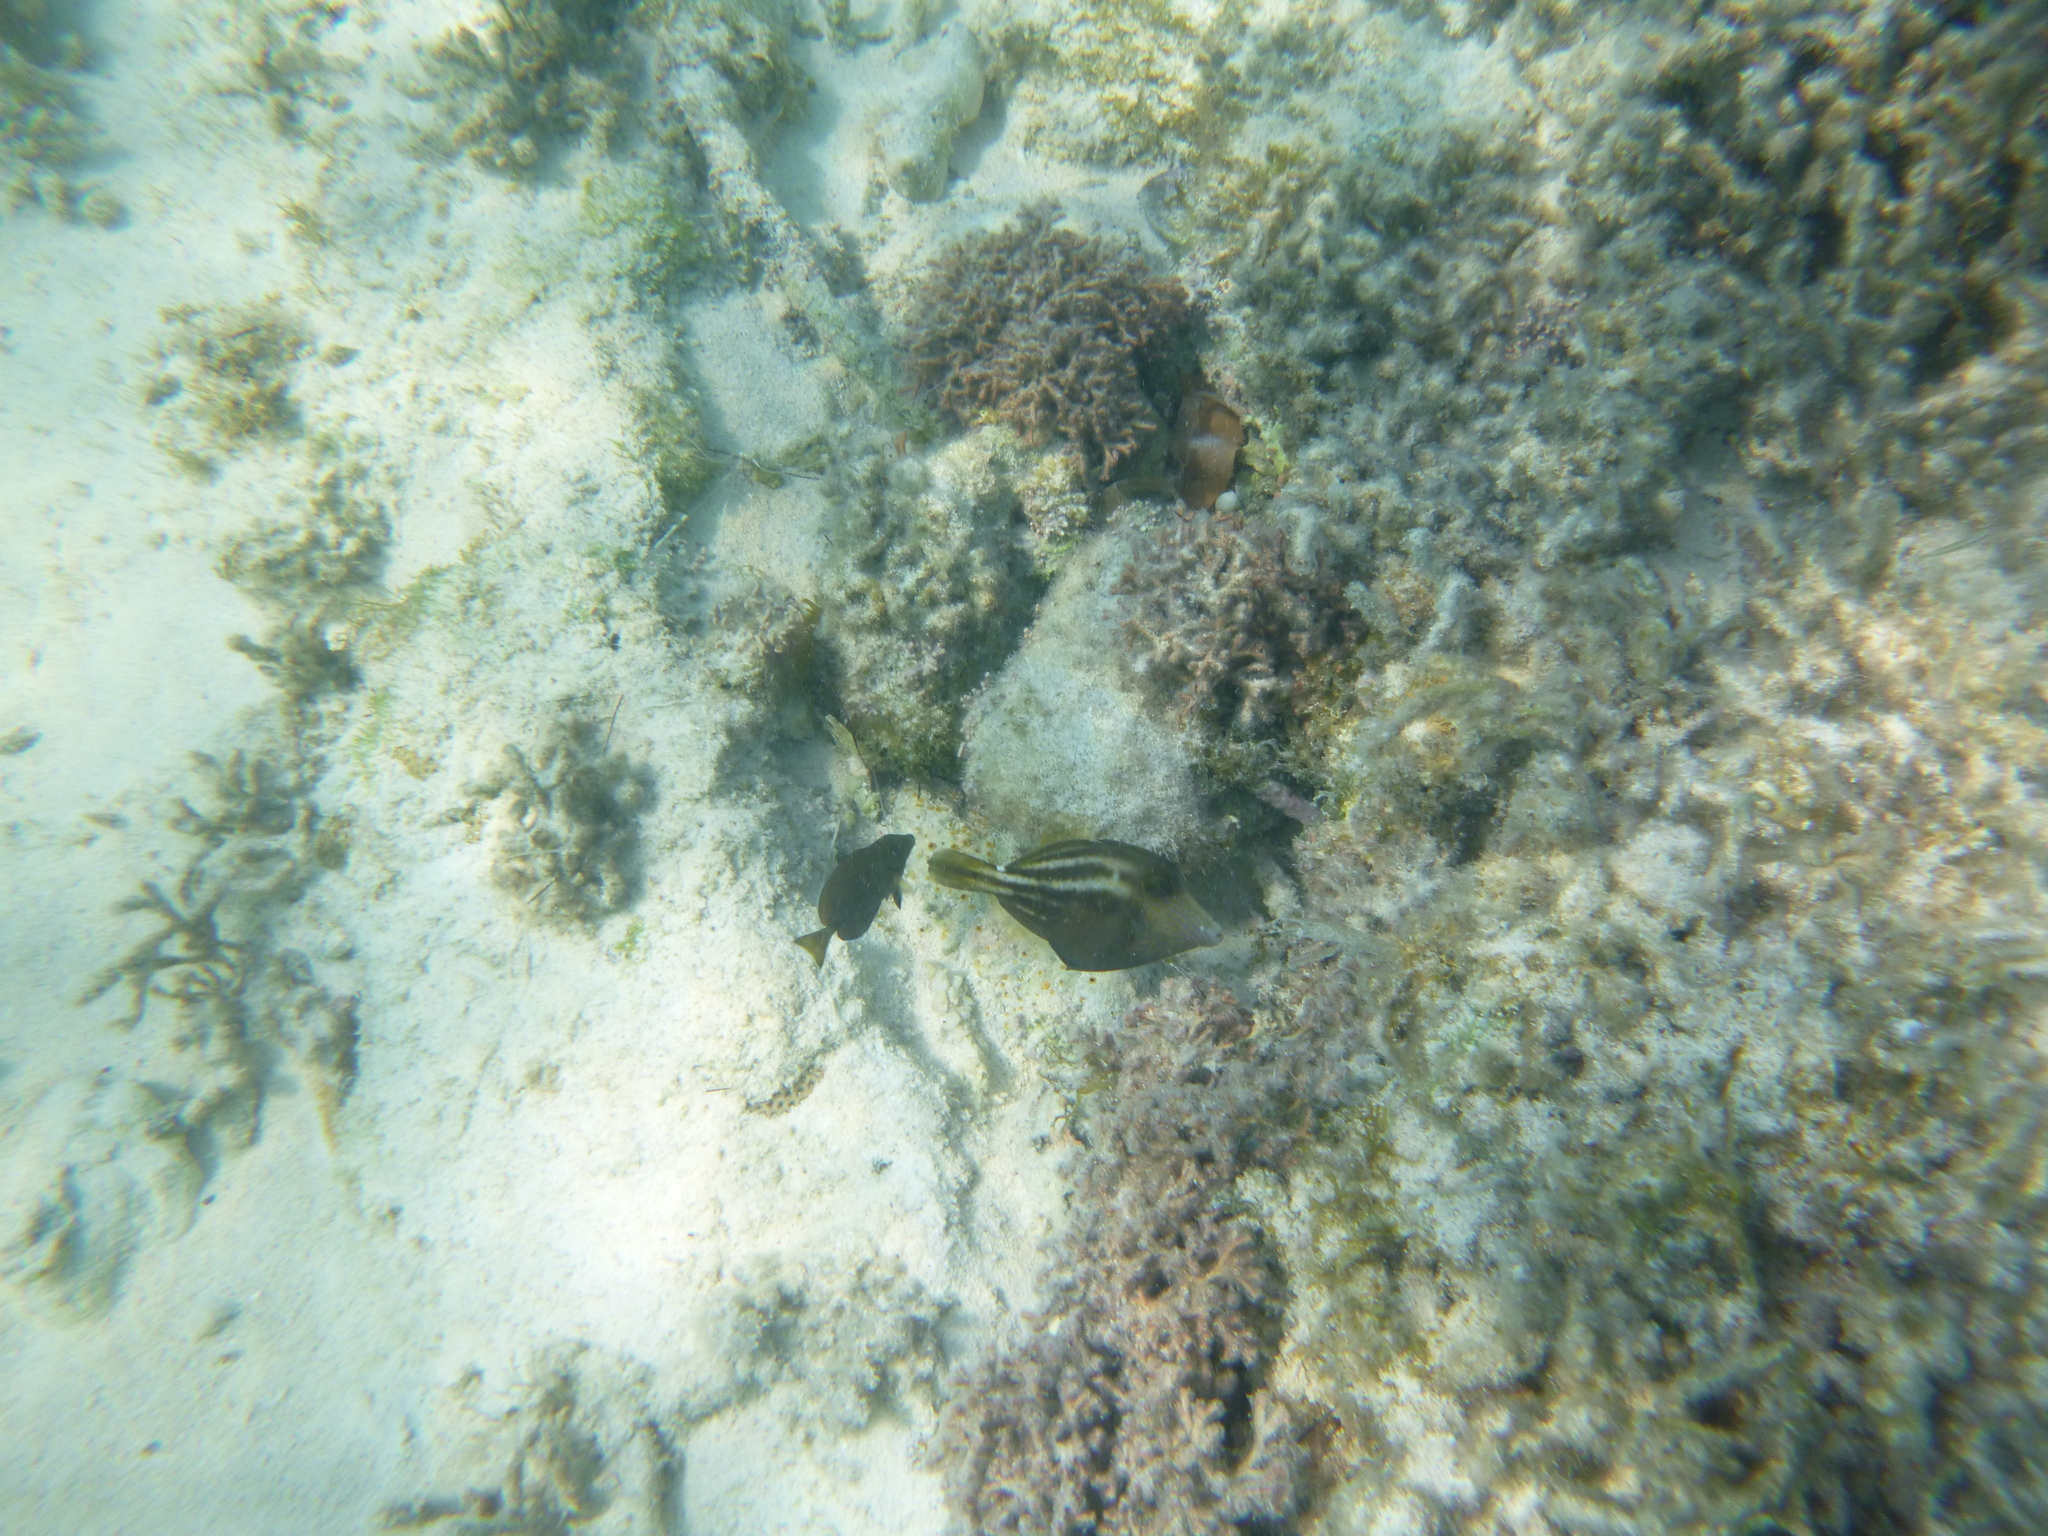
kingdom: Animalia
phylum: Chordata
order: Tetraodontiformes
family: Monacanthidae
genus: Cantherhines
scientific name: Cantherhines pullus
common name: Orangespotted filefish
